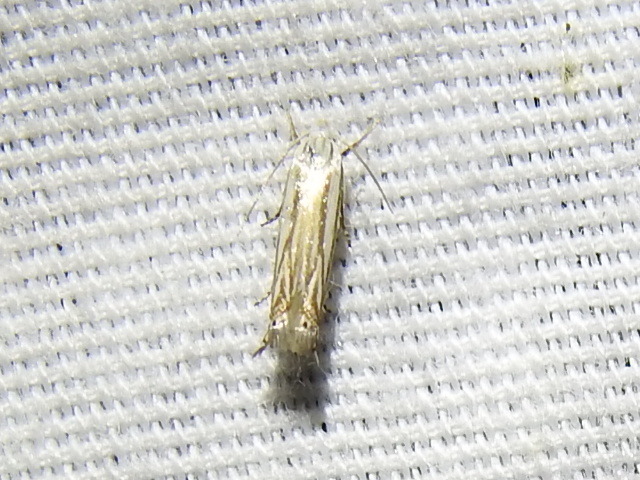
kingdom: Animalia
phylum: Arthropoda
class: Insecta
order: Lepidoptera
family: Gelechiidae
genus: Polyhymno
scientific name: Polyhymno luteostrigella
